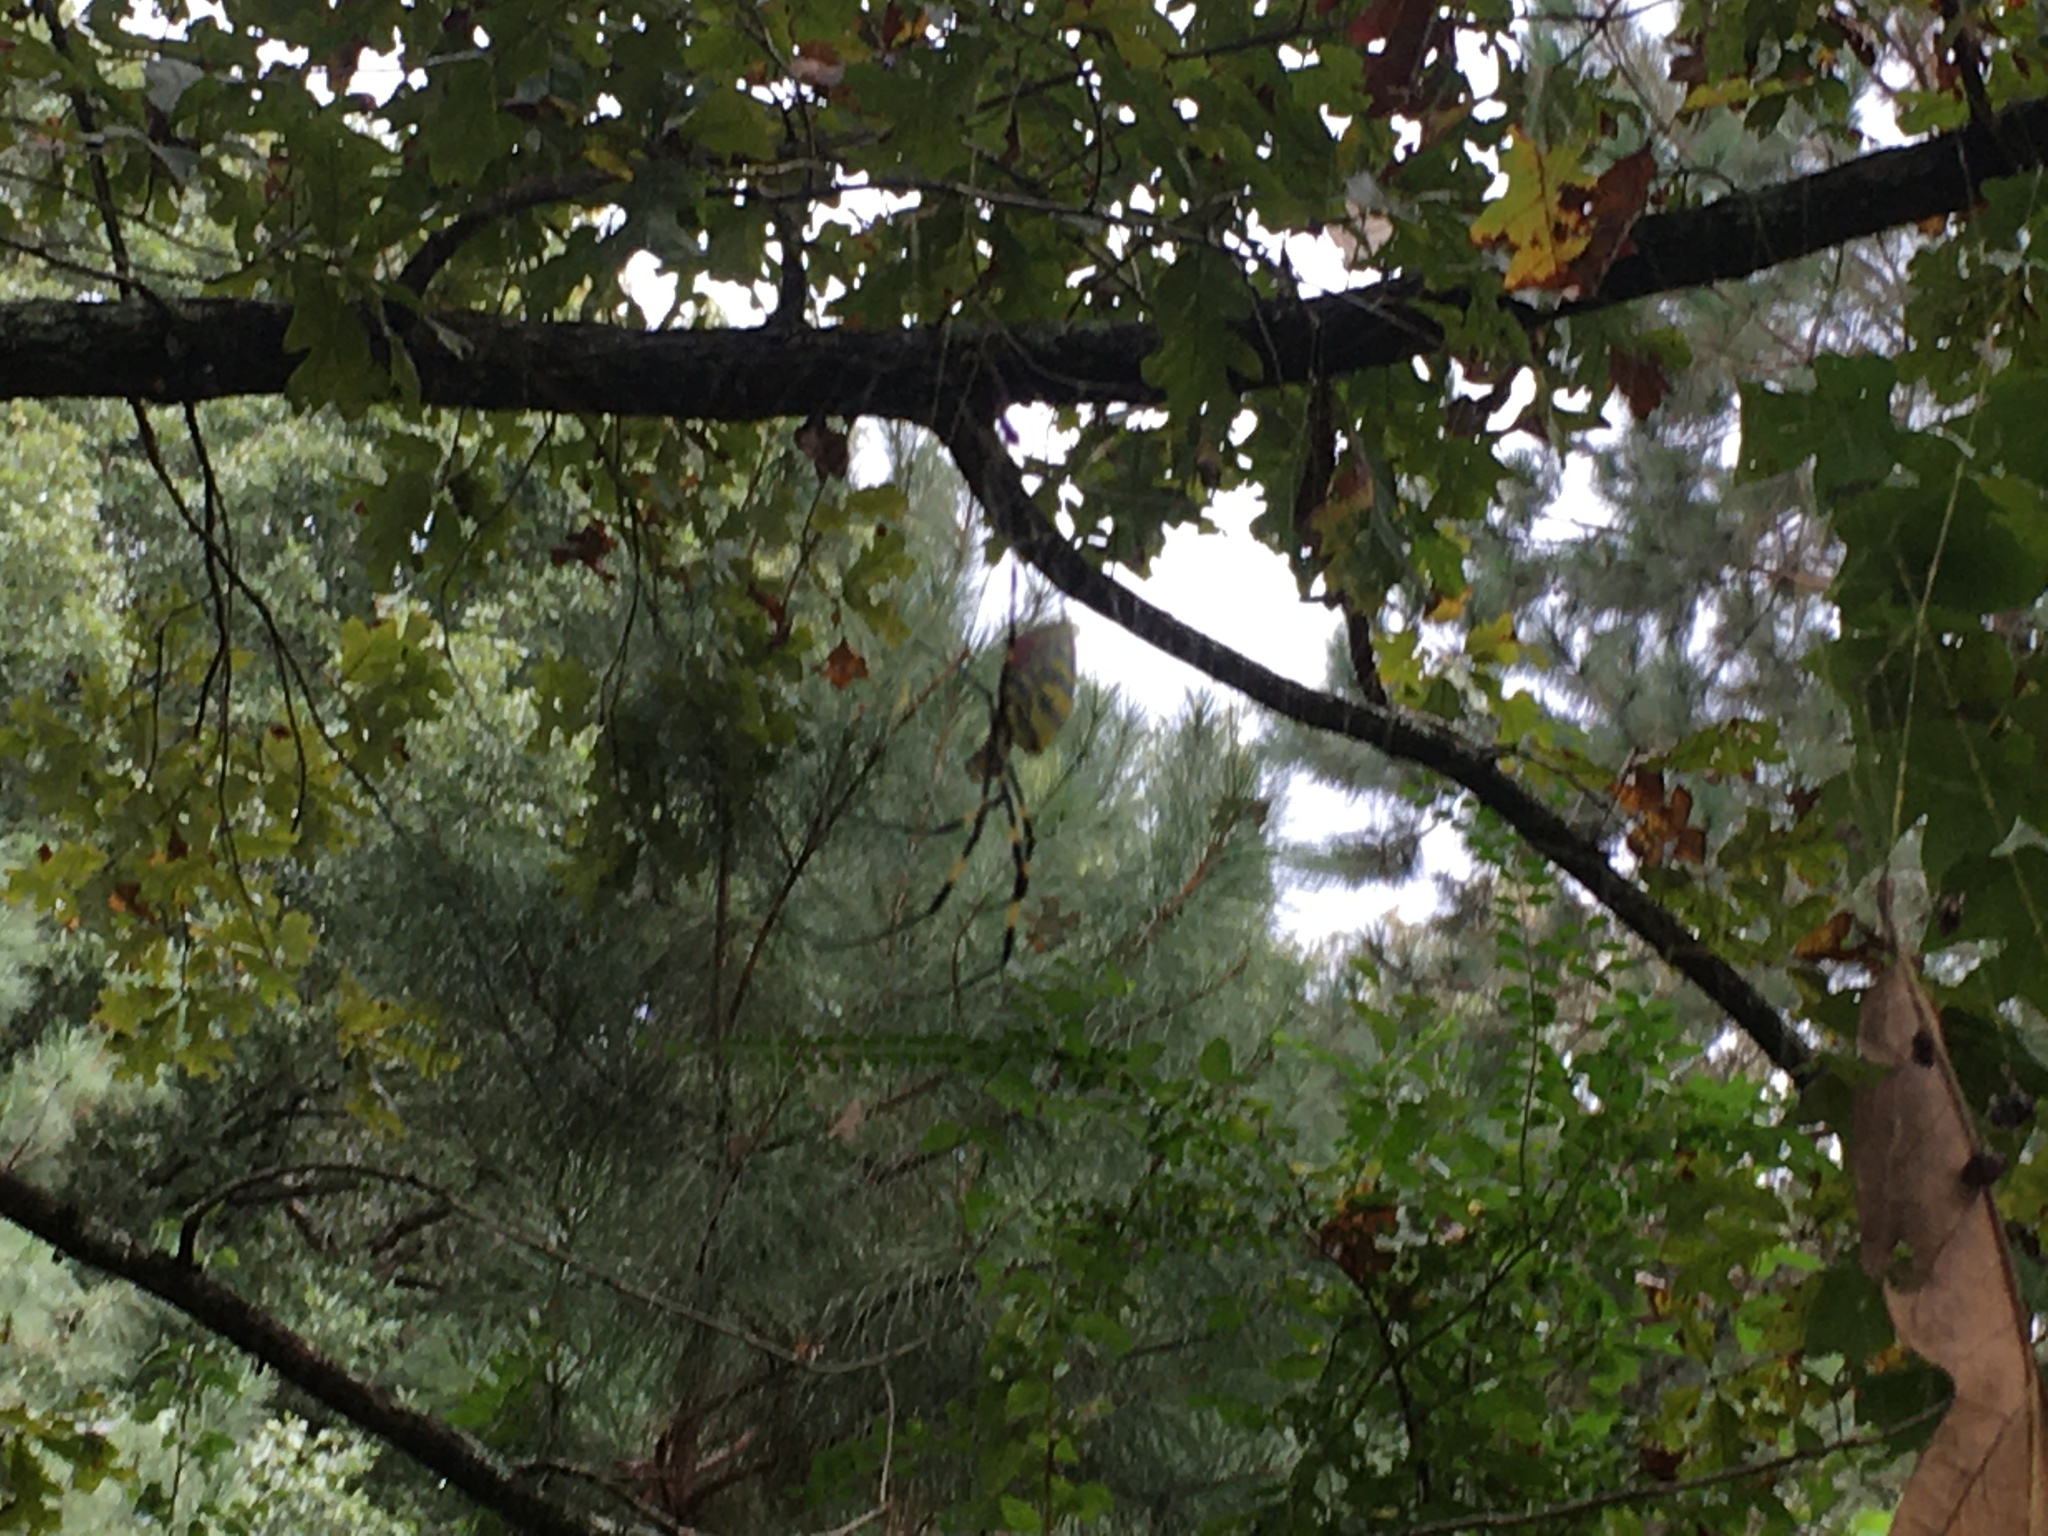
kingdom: Animalia
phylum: Arthropoda
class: Arachnida
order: Araneae
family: Araneidae
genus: Trichonephila
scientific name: Trichonephila clavata
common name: Jorō spider
